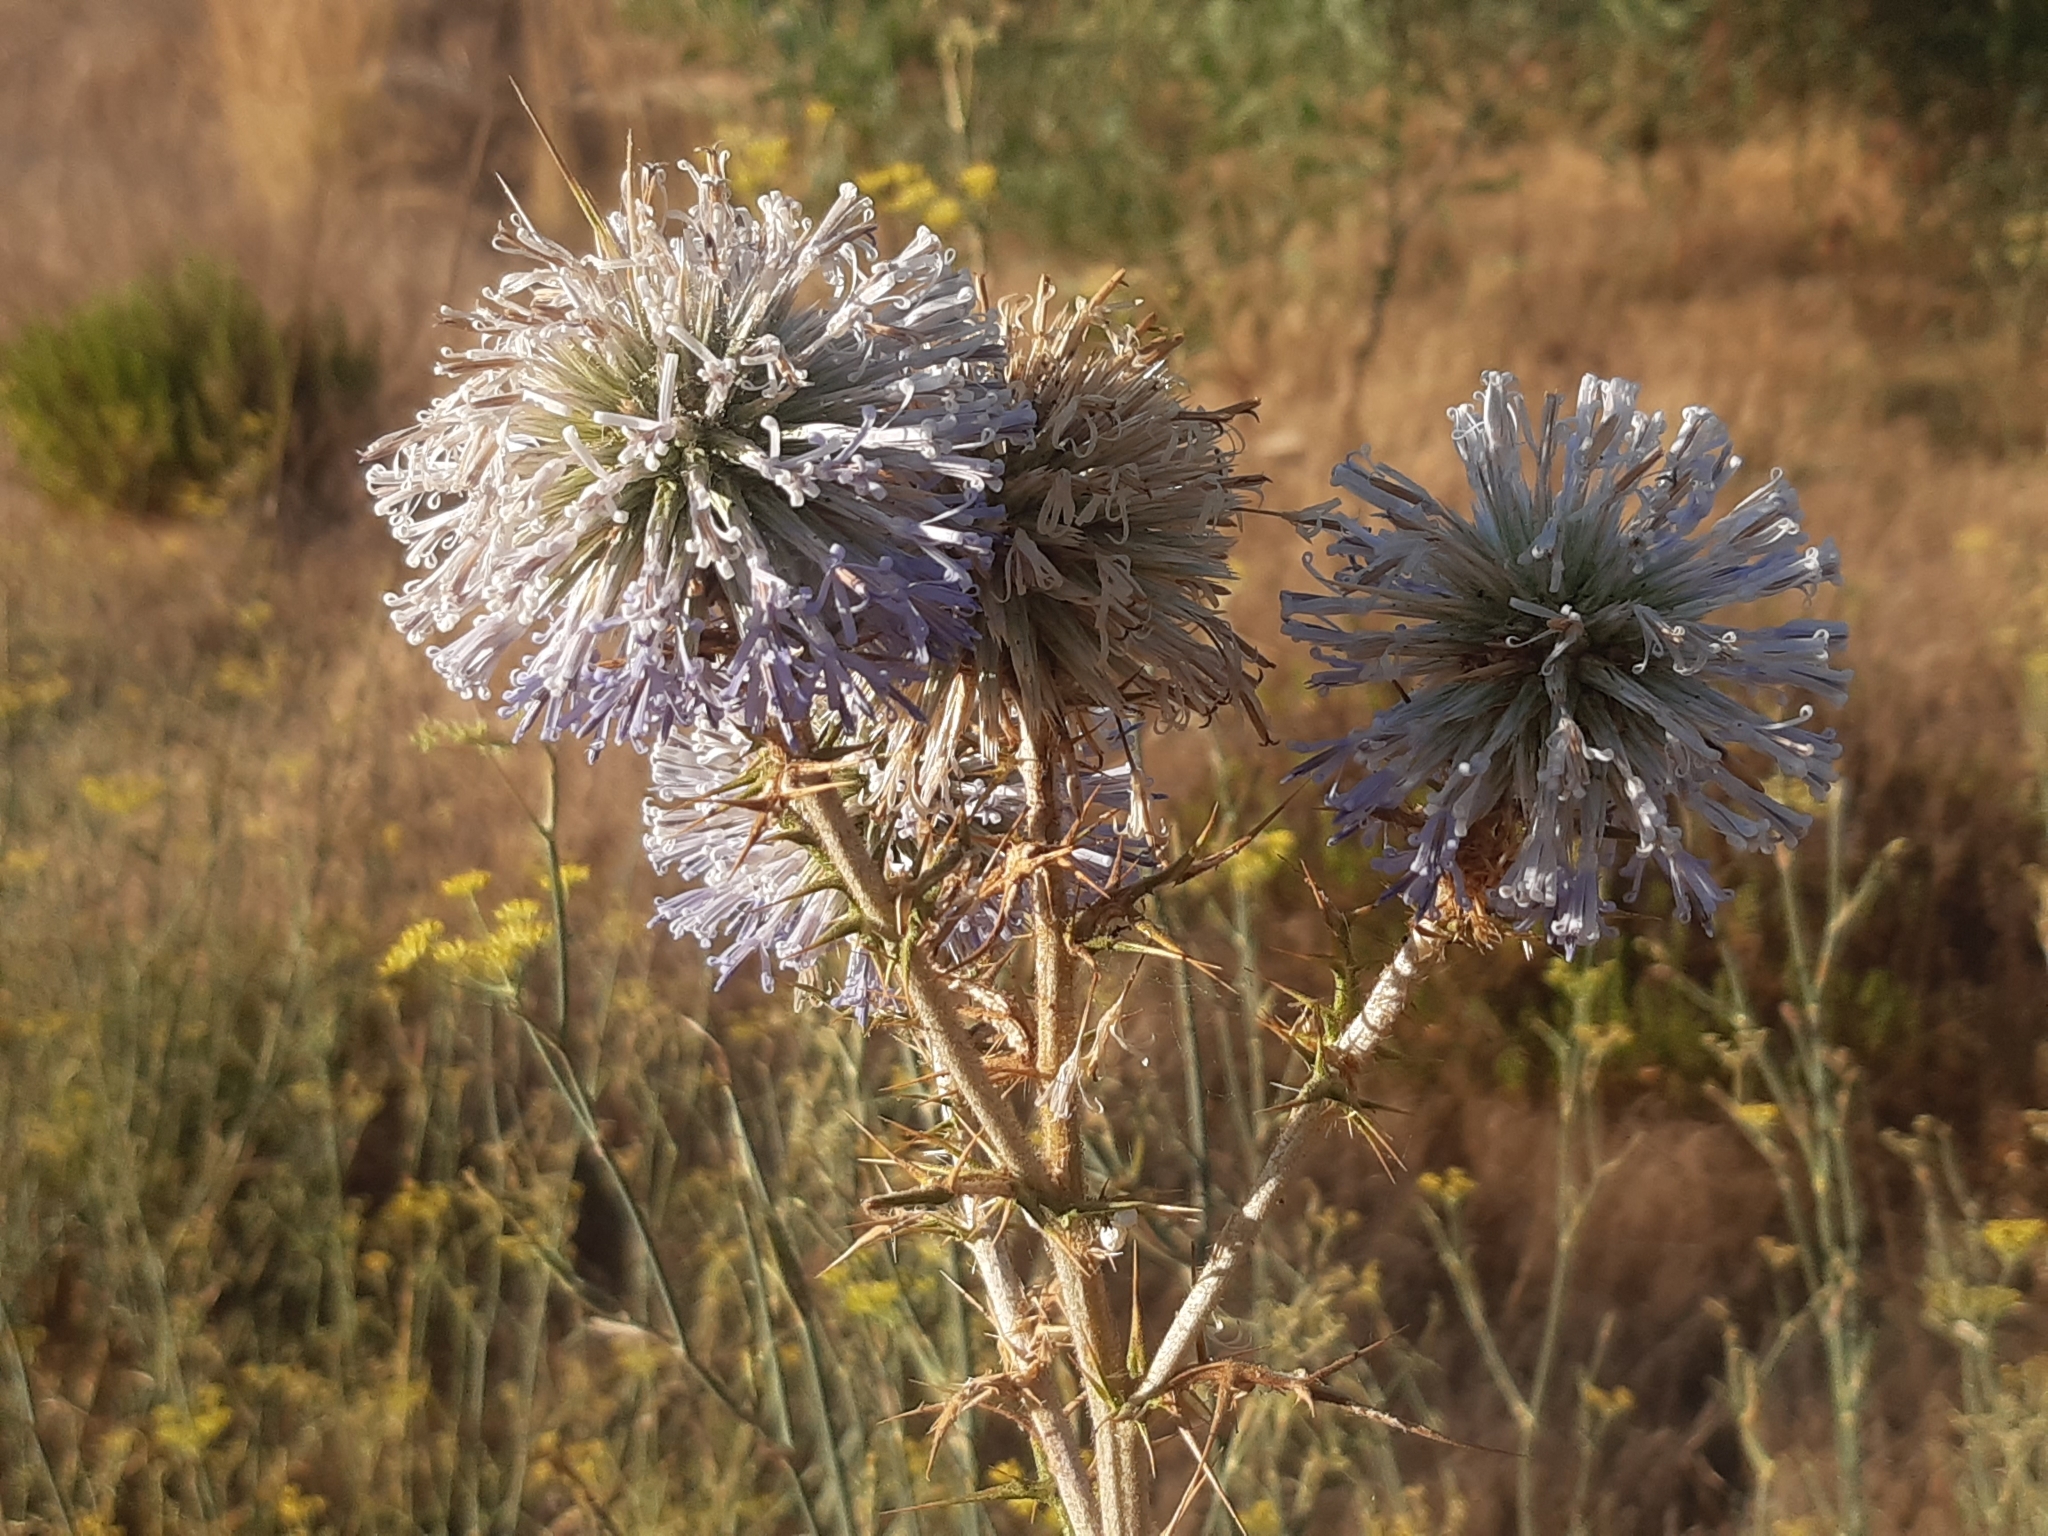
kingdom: Plantae
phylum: Tracheophyta
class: Magnoliopsida
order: Asterales
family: Asteraceae
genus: Echinops
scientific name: Echinops spinosissimus
